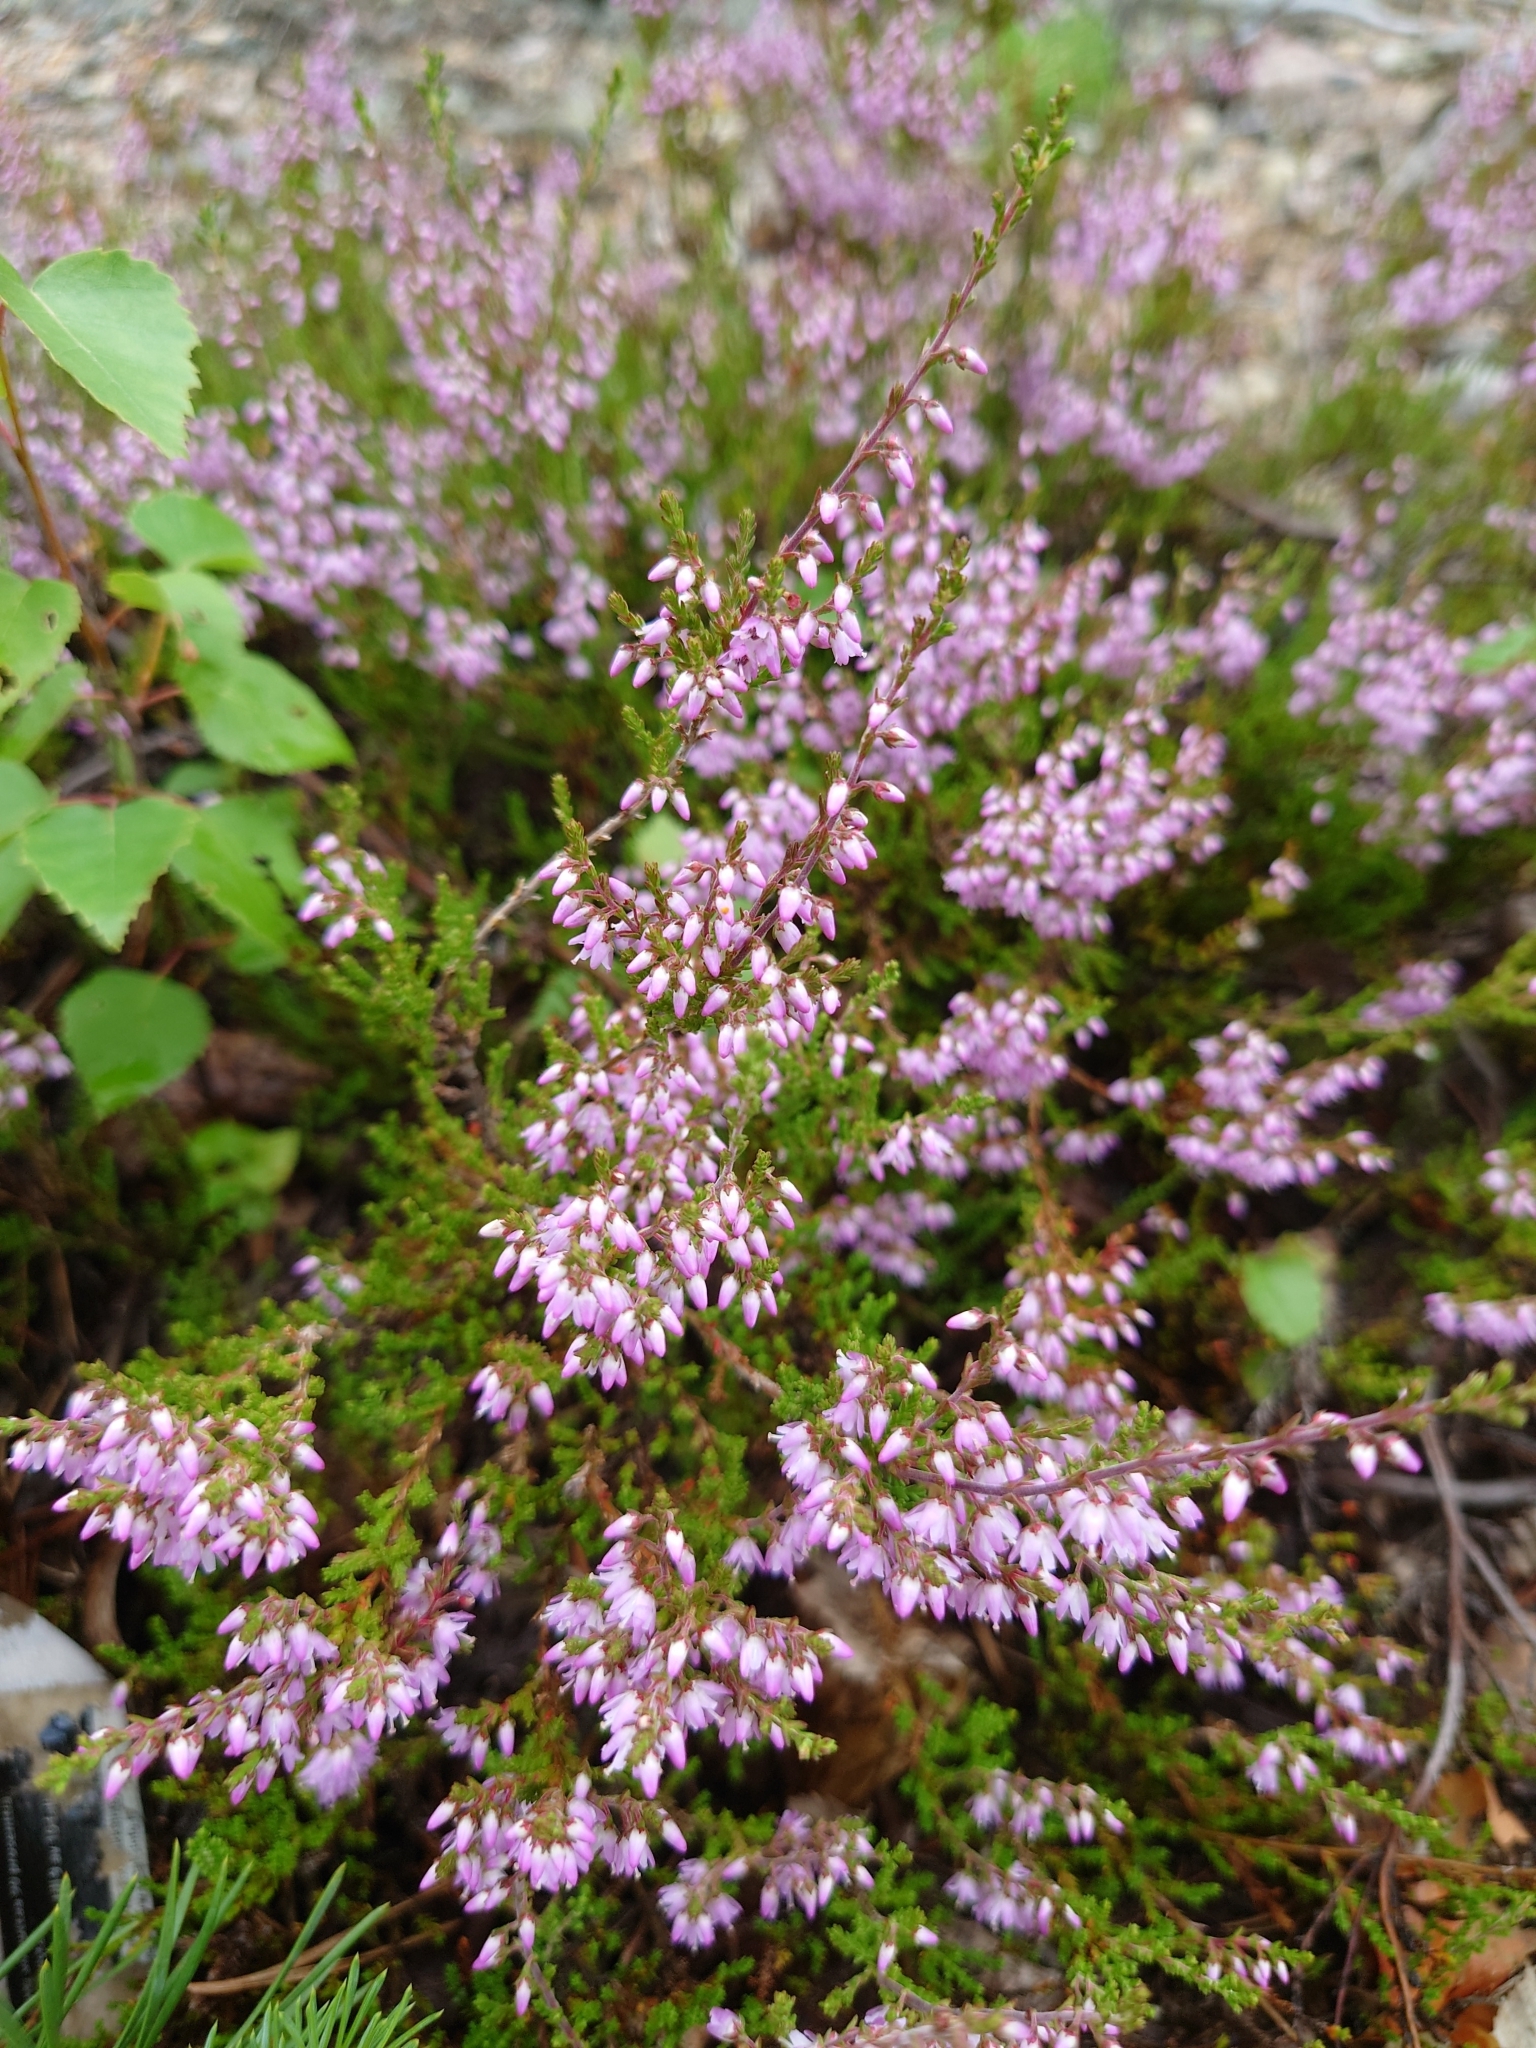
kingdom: Plantae
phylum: Tracheophyta
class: Magnoliopsida
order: Ericales
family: Ericaceae
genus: Calluna
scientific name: Calluna vulgaris
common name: Heather
